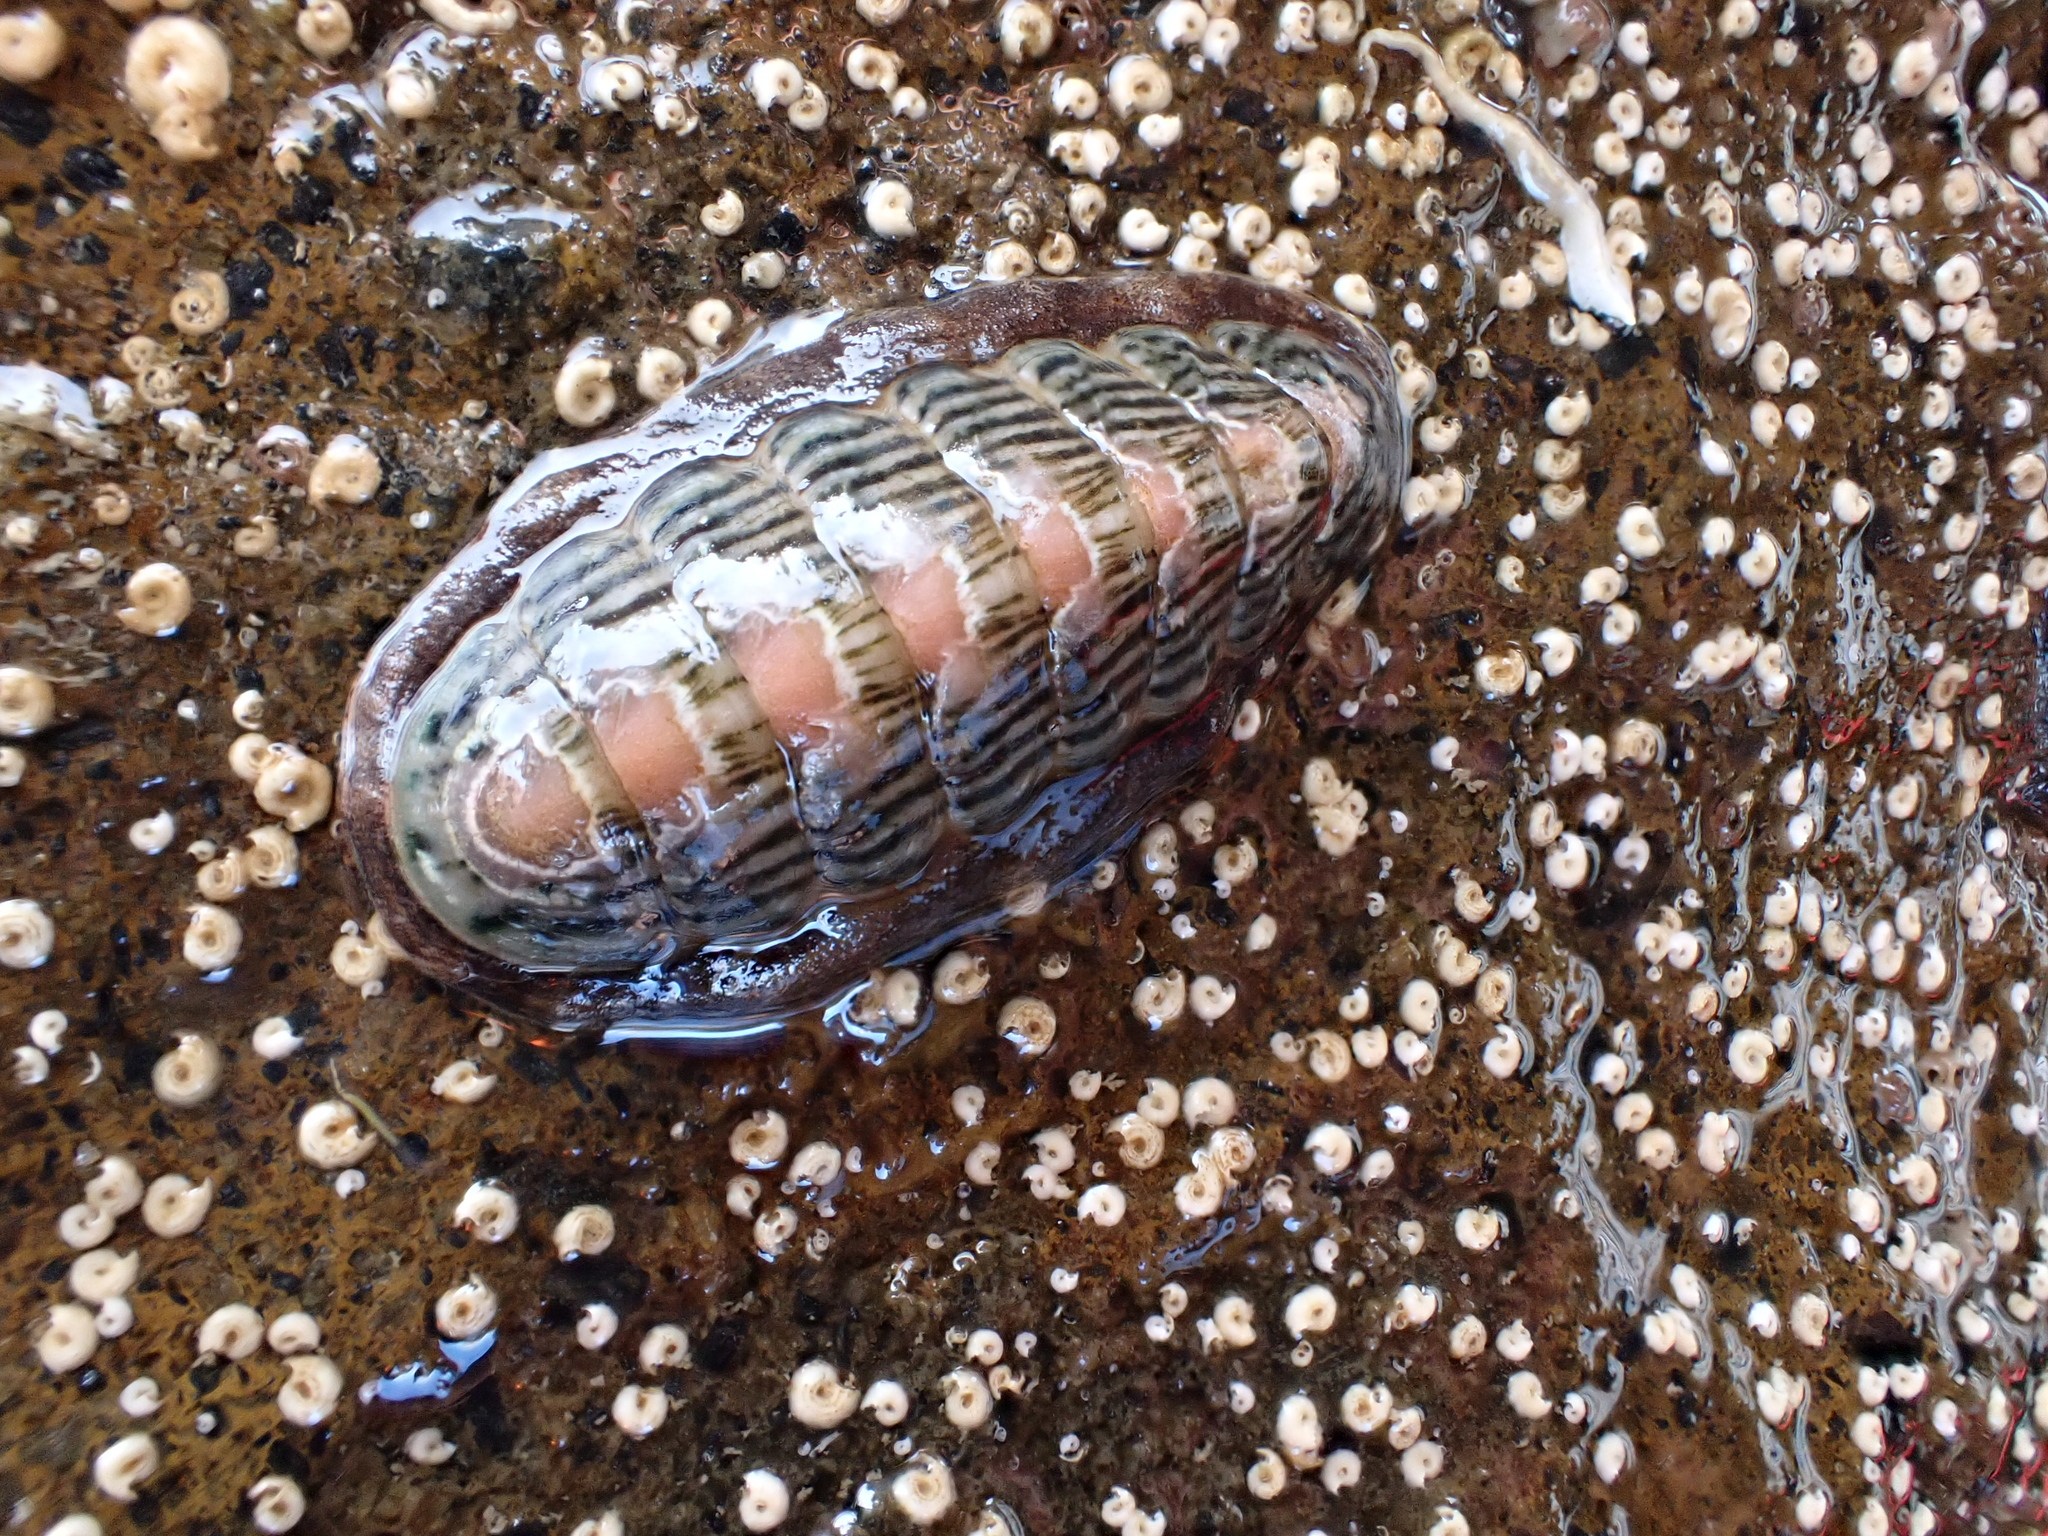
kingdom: Animalia
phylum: Mollusca
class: Polyplacophora
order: Chitonida
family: Ischnochitonidae
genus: Ischnochiton
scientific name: Ischnochiton maorianus
